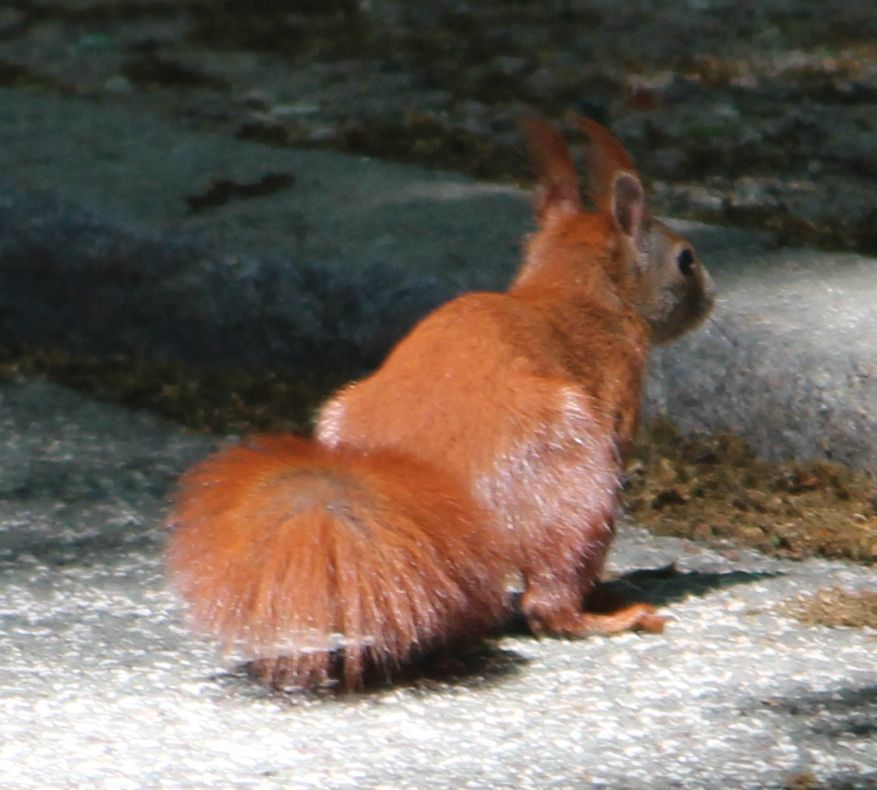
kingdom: Animalia
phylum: Chordata
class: Mammalia
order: Rodentia
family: Sciuridae
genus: Sciurus
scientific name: Sciurus vulgaris
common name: Eurasian red squirrel
